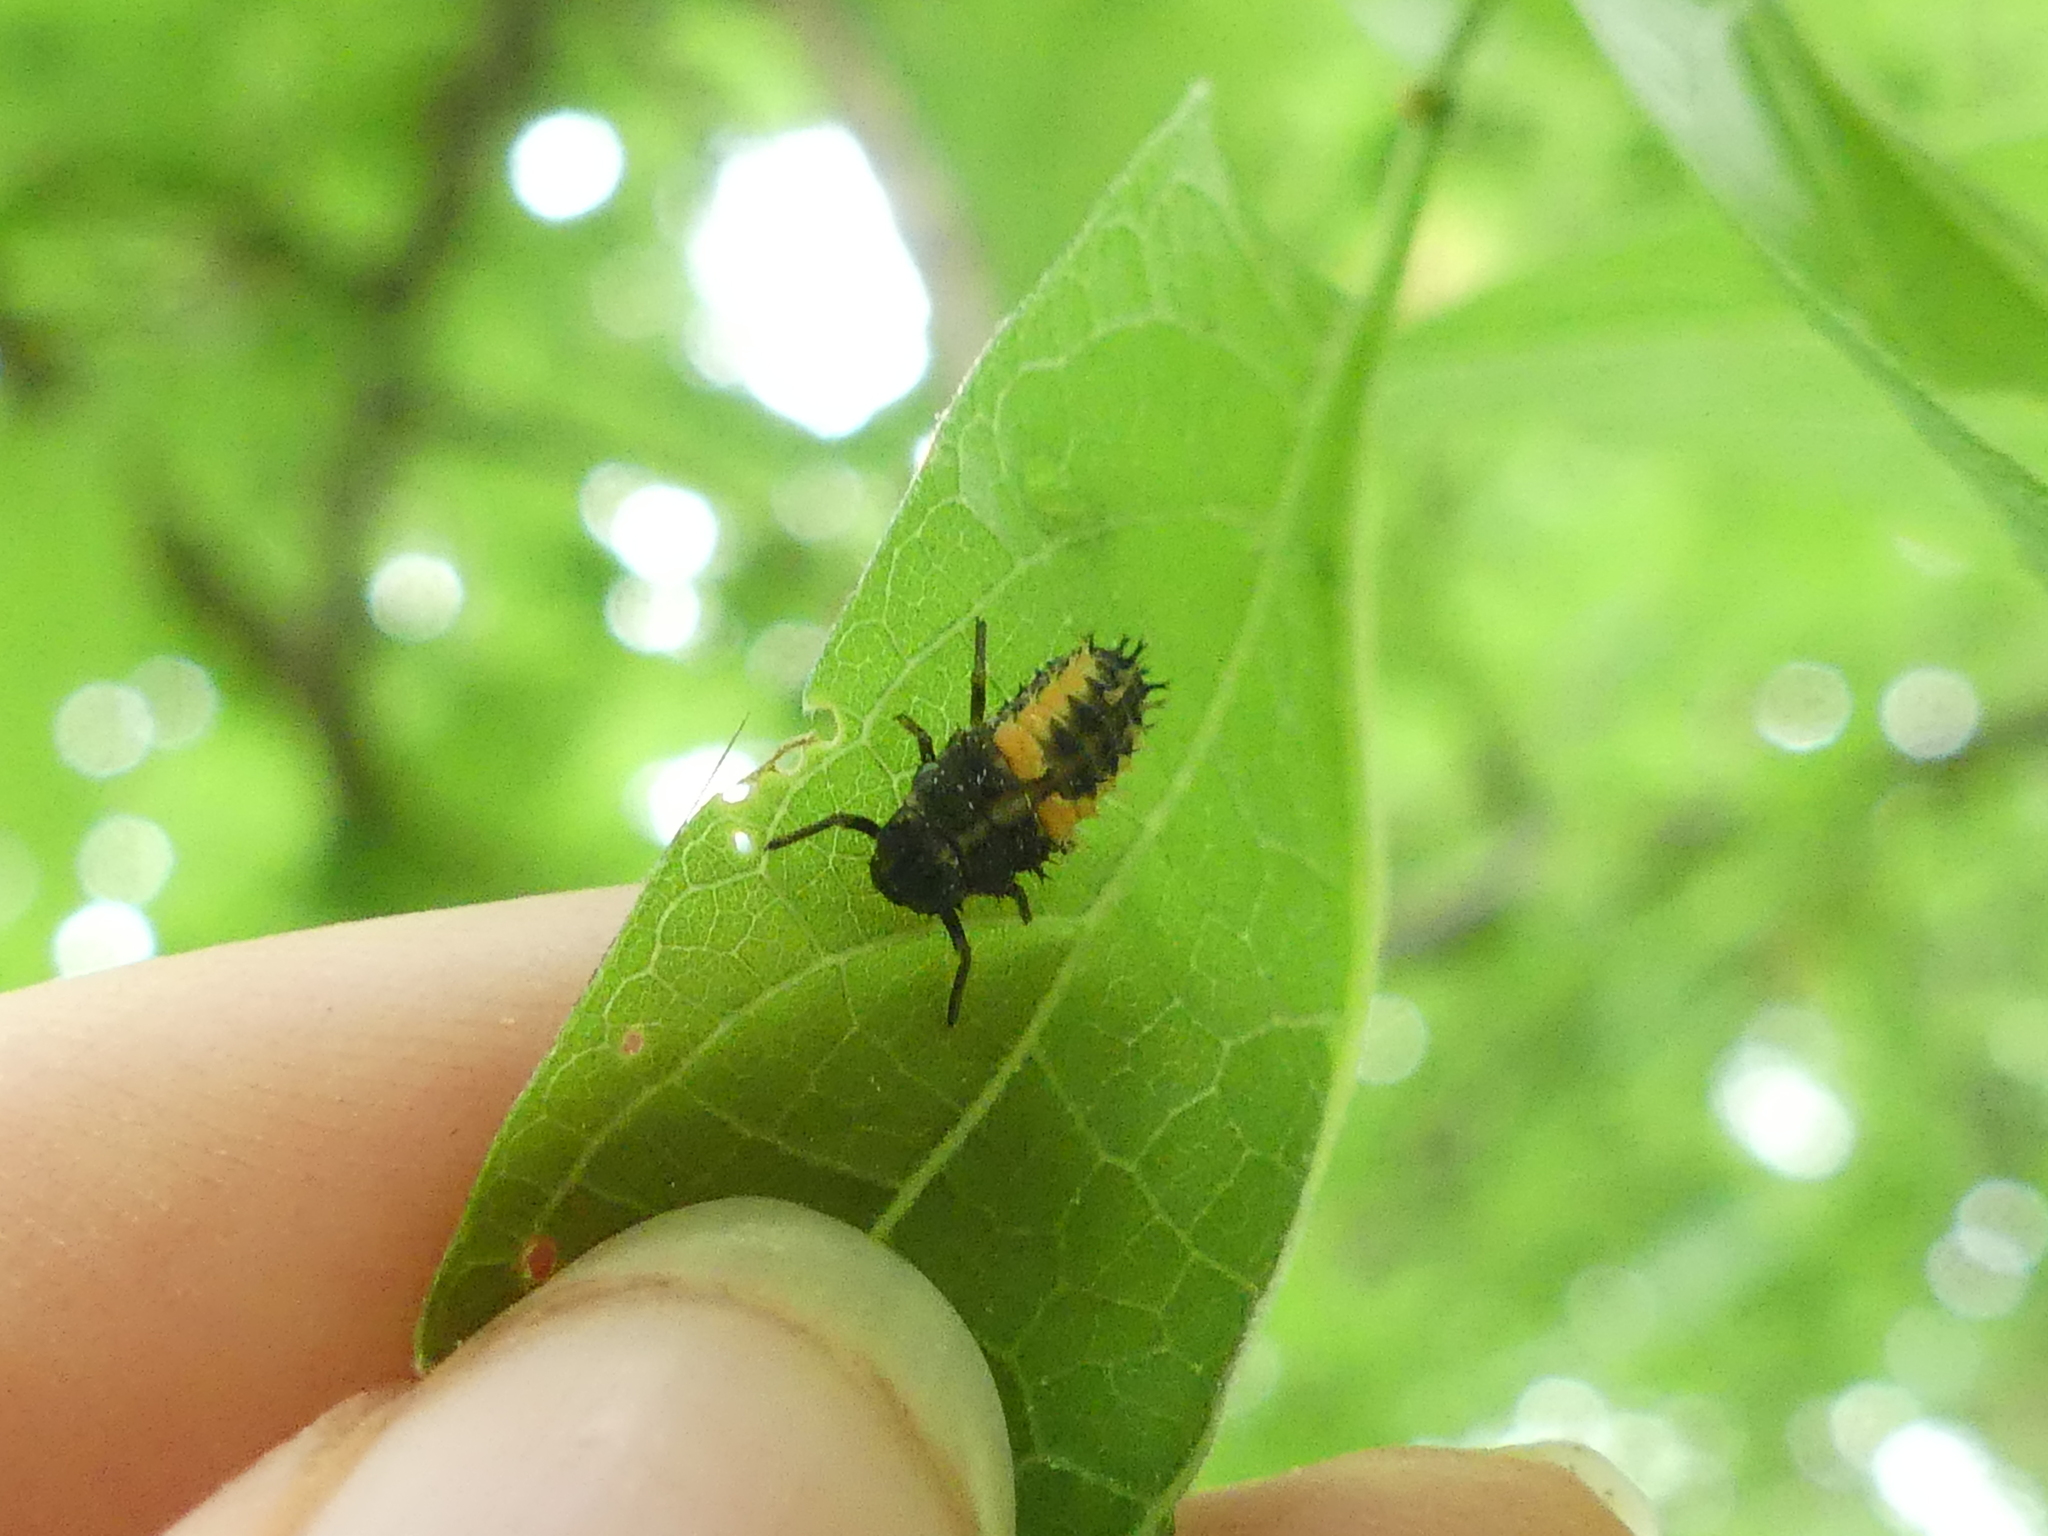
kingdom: Animalia
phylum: Arthropoda
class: Insecta
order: Coleoptera
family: Coccinellidae
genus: Harmonia
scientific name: Harmonia axyridis
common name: Harlequin ladybird
